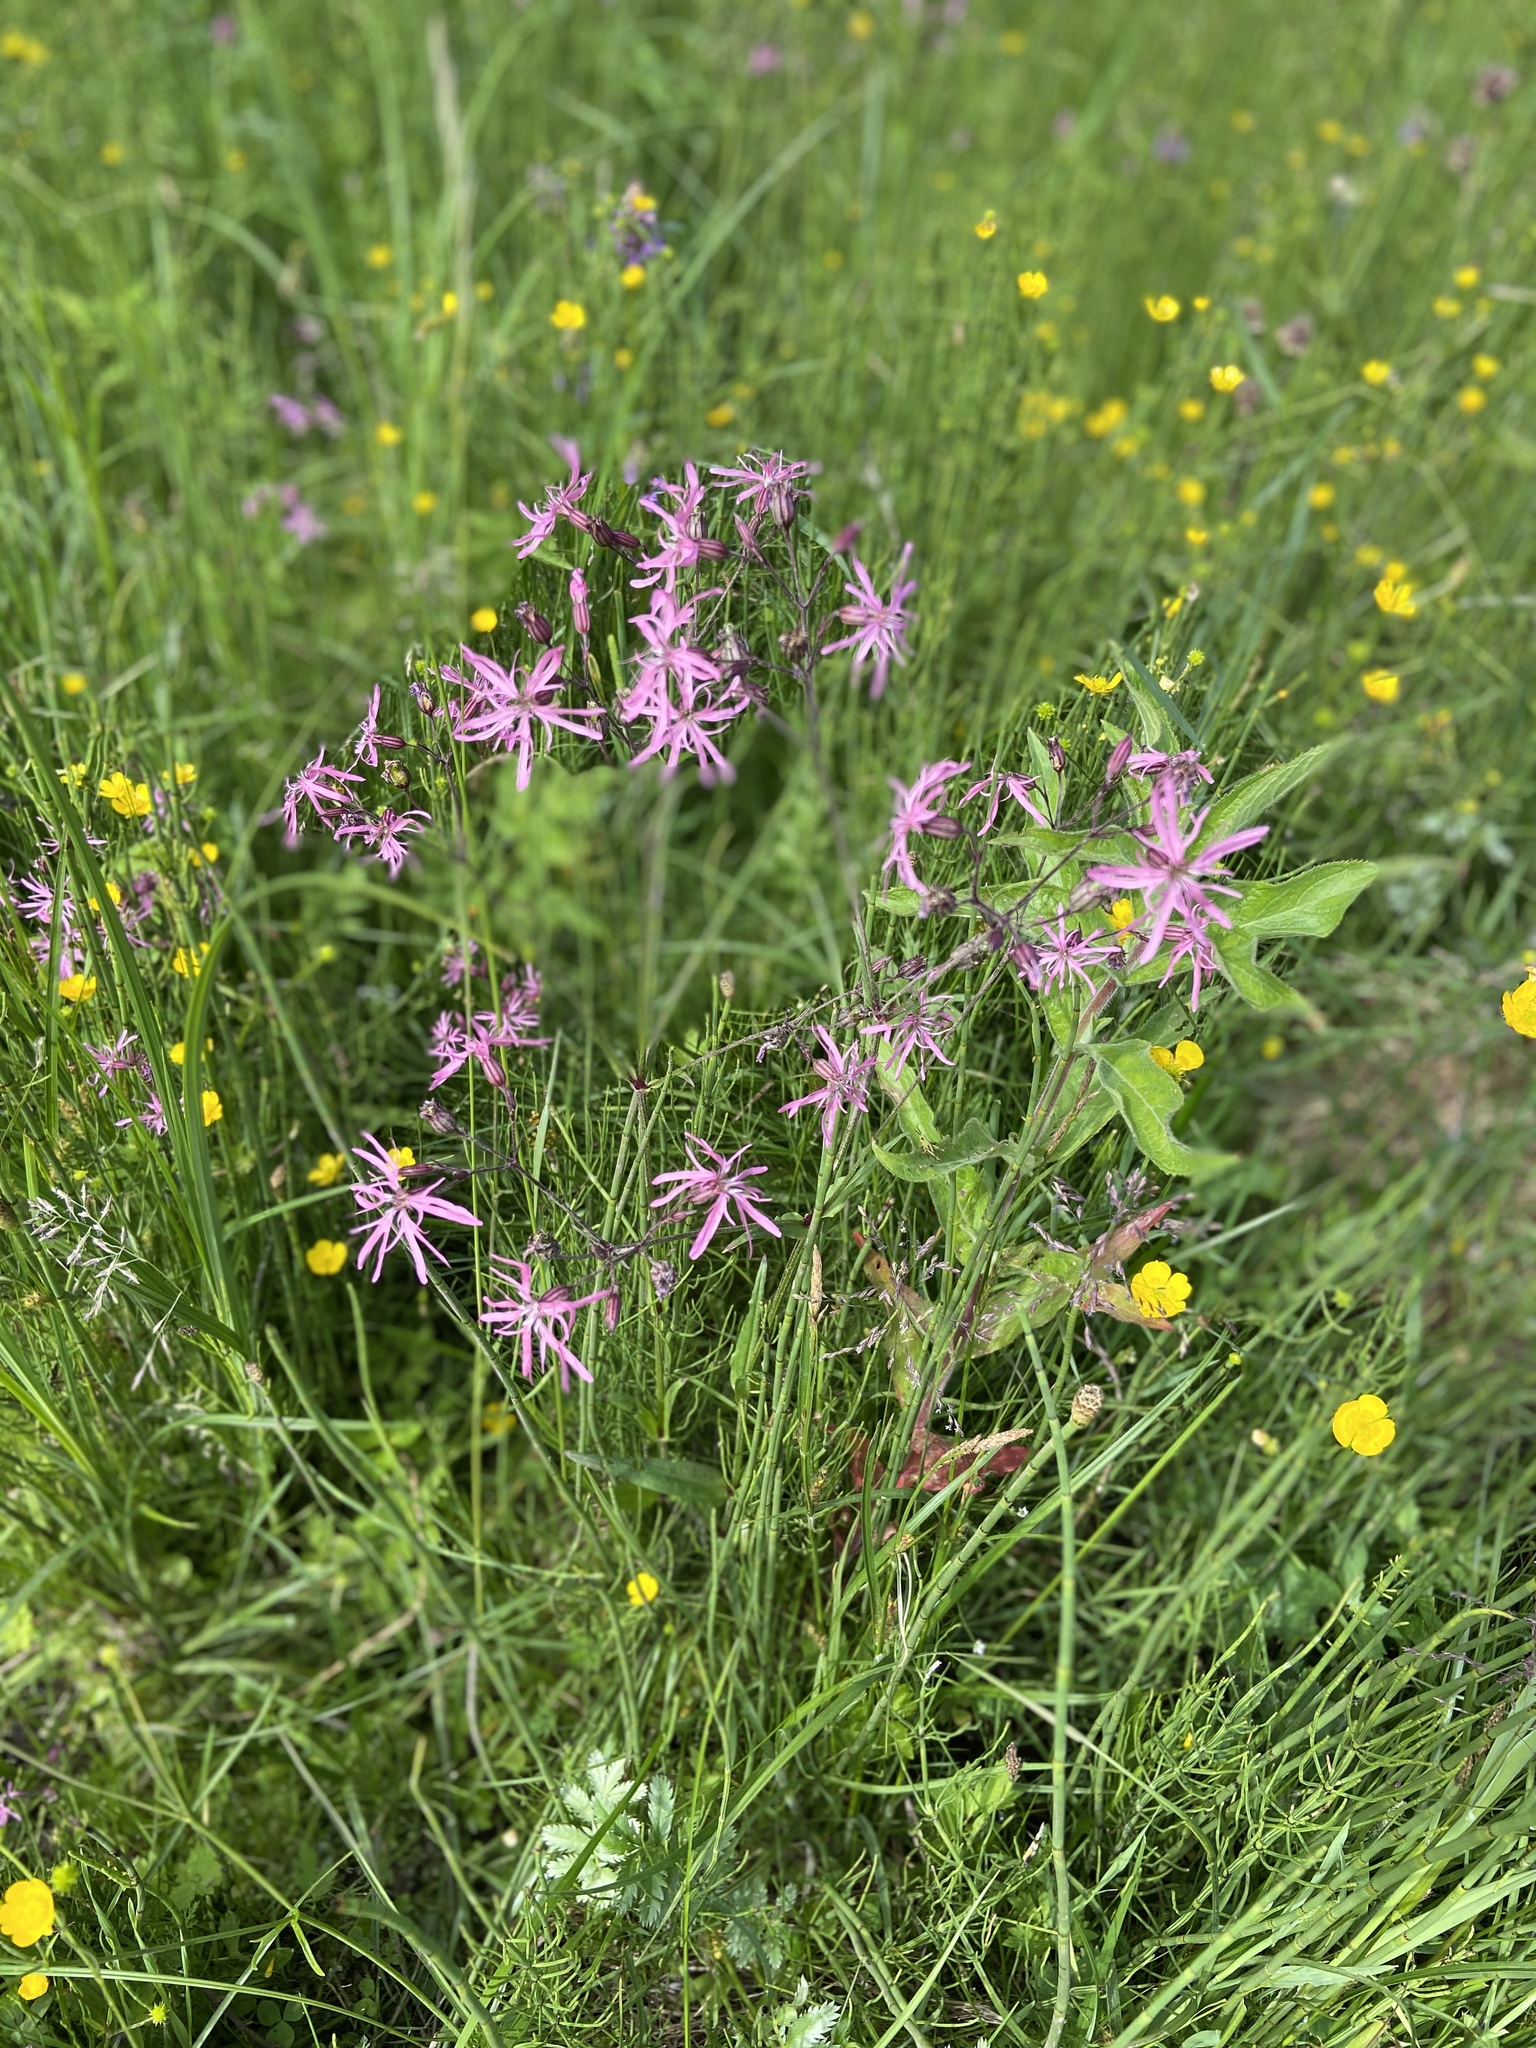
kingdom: Plantae
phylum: Tracheophyta
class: Magnoliopsida
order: Caryophyllales
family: Caryophyllaceae
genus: Silene
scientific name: Silene flos-cuculi
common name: Ragged-robin
